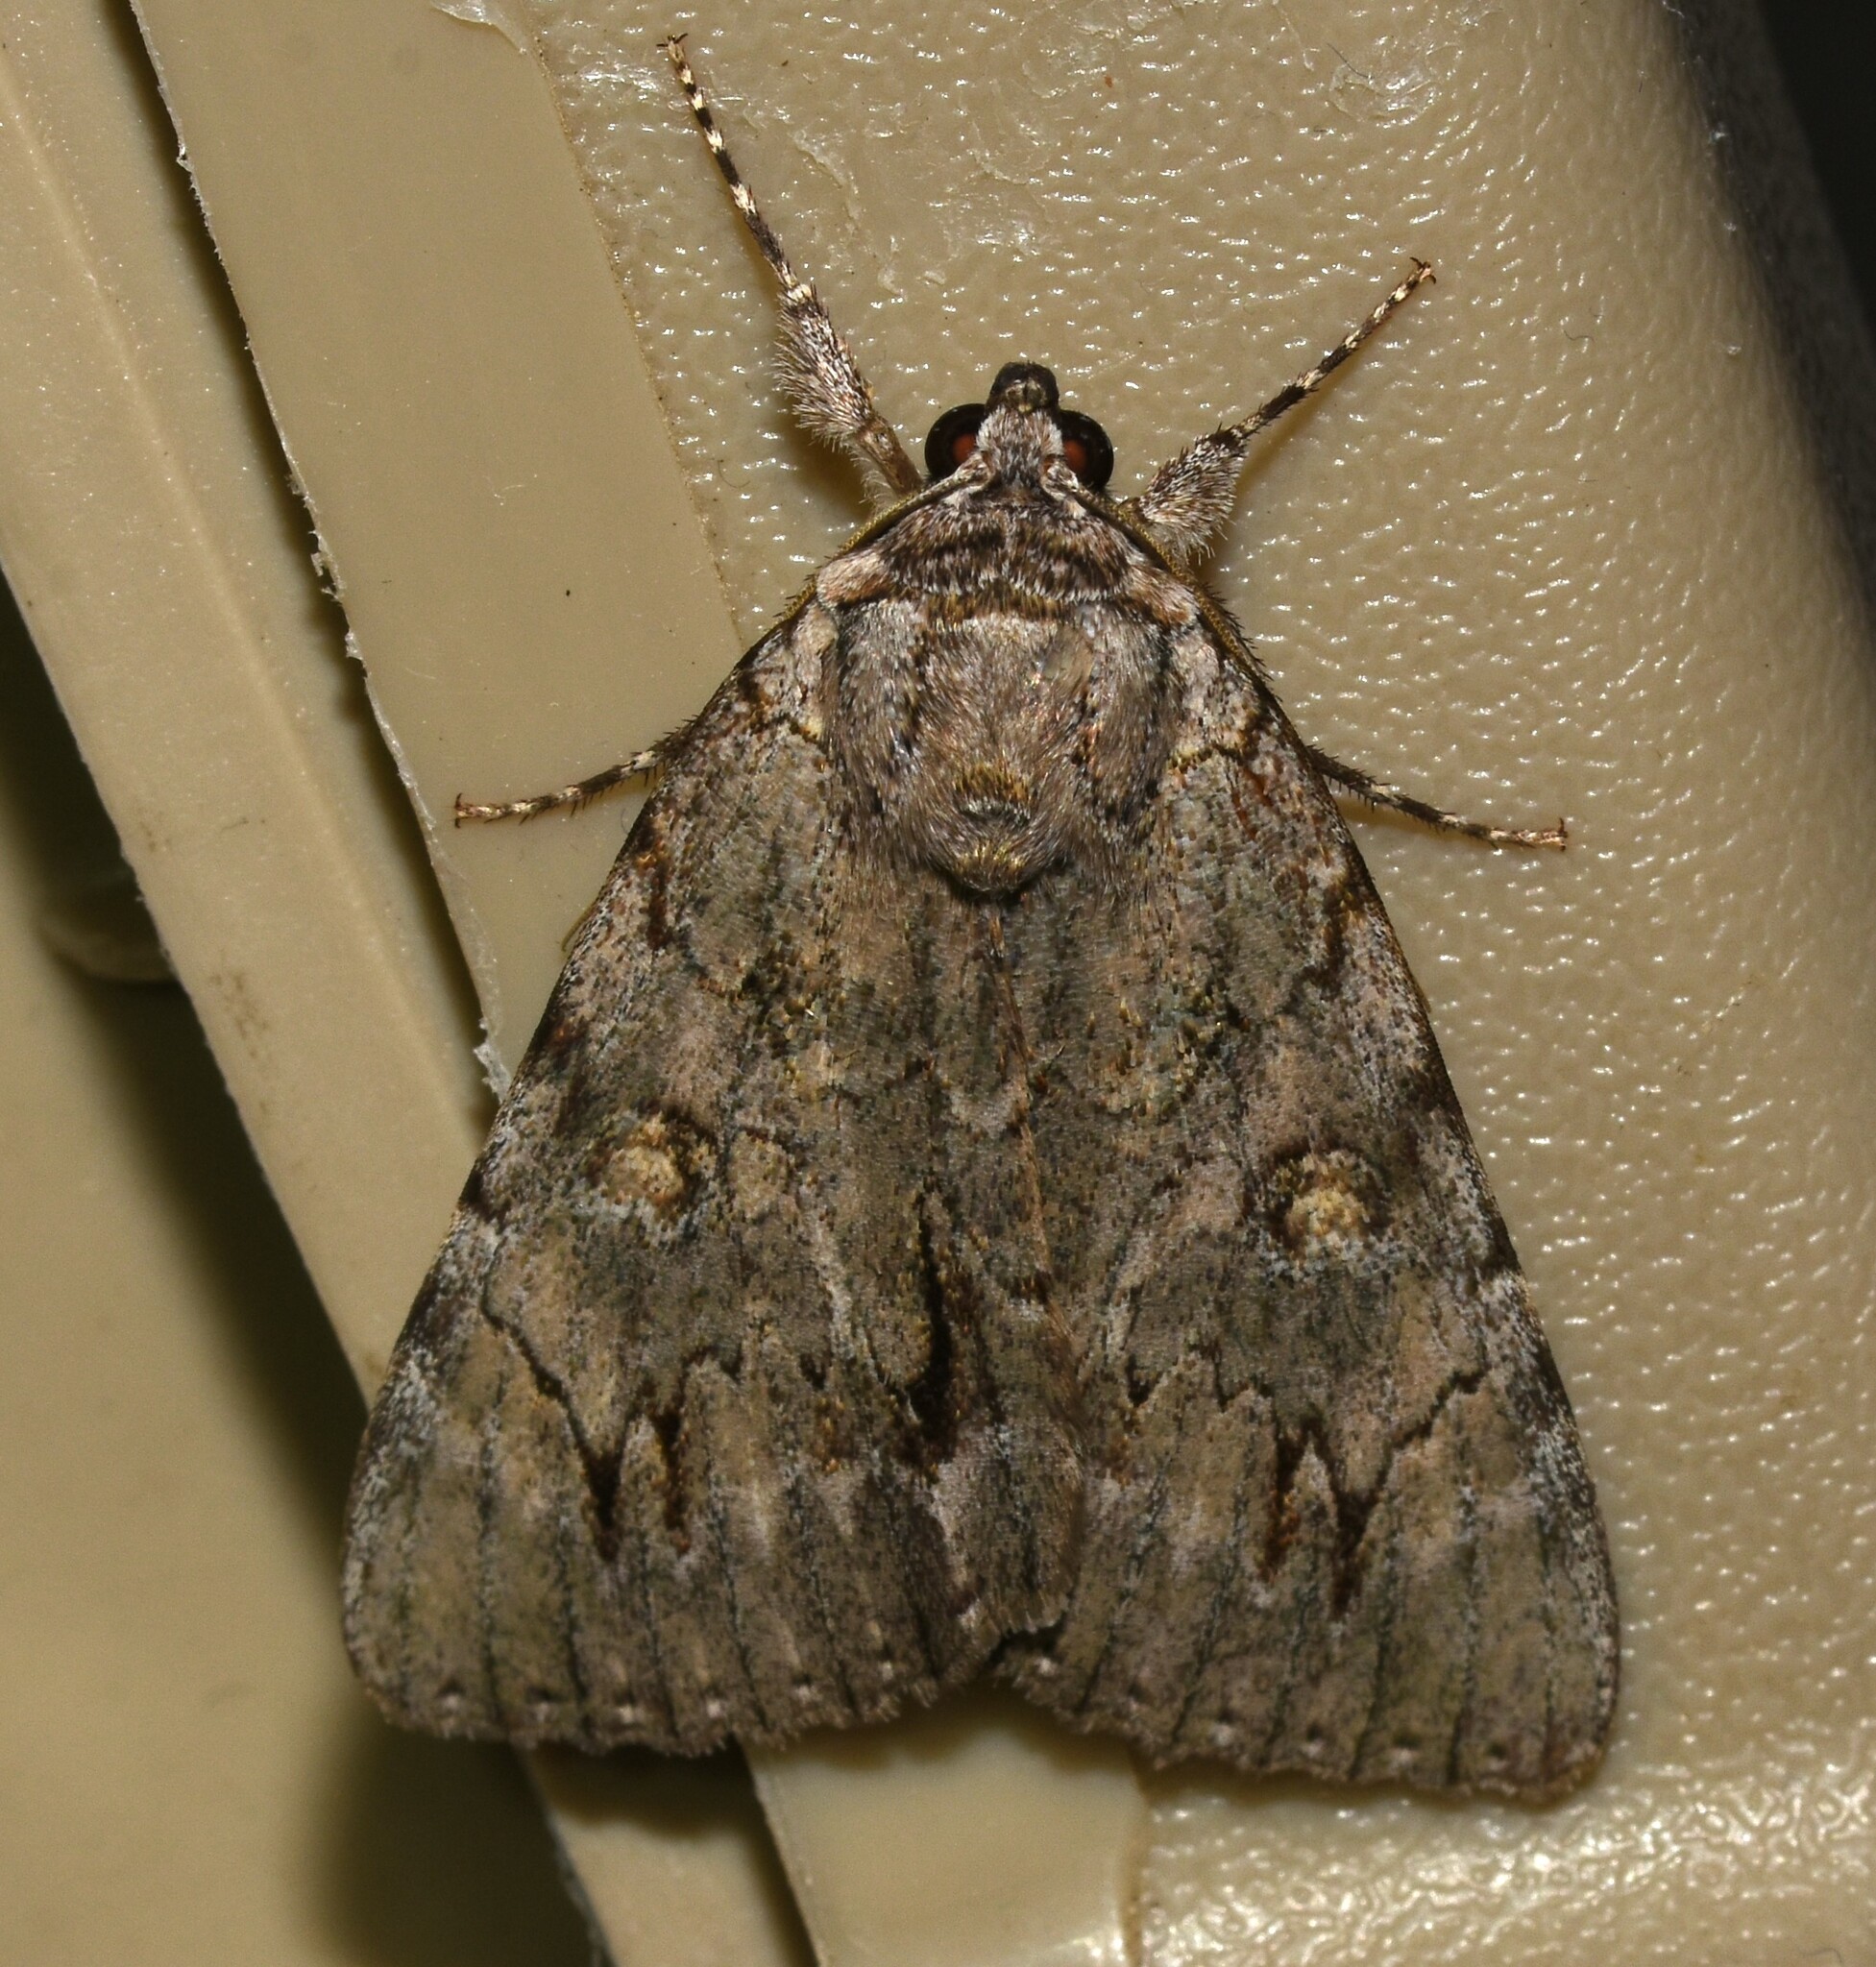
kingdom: Animalia
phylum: Arthropoda
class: Insecta
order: Lepidoptera
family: Erebidae
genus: Catocala
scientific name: Catocala robinsoni
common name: Robinson's underwing
